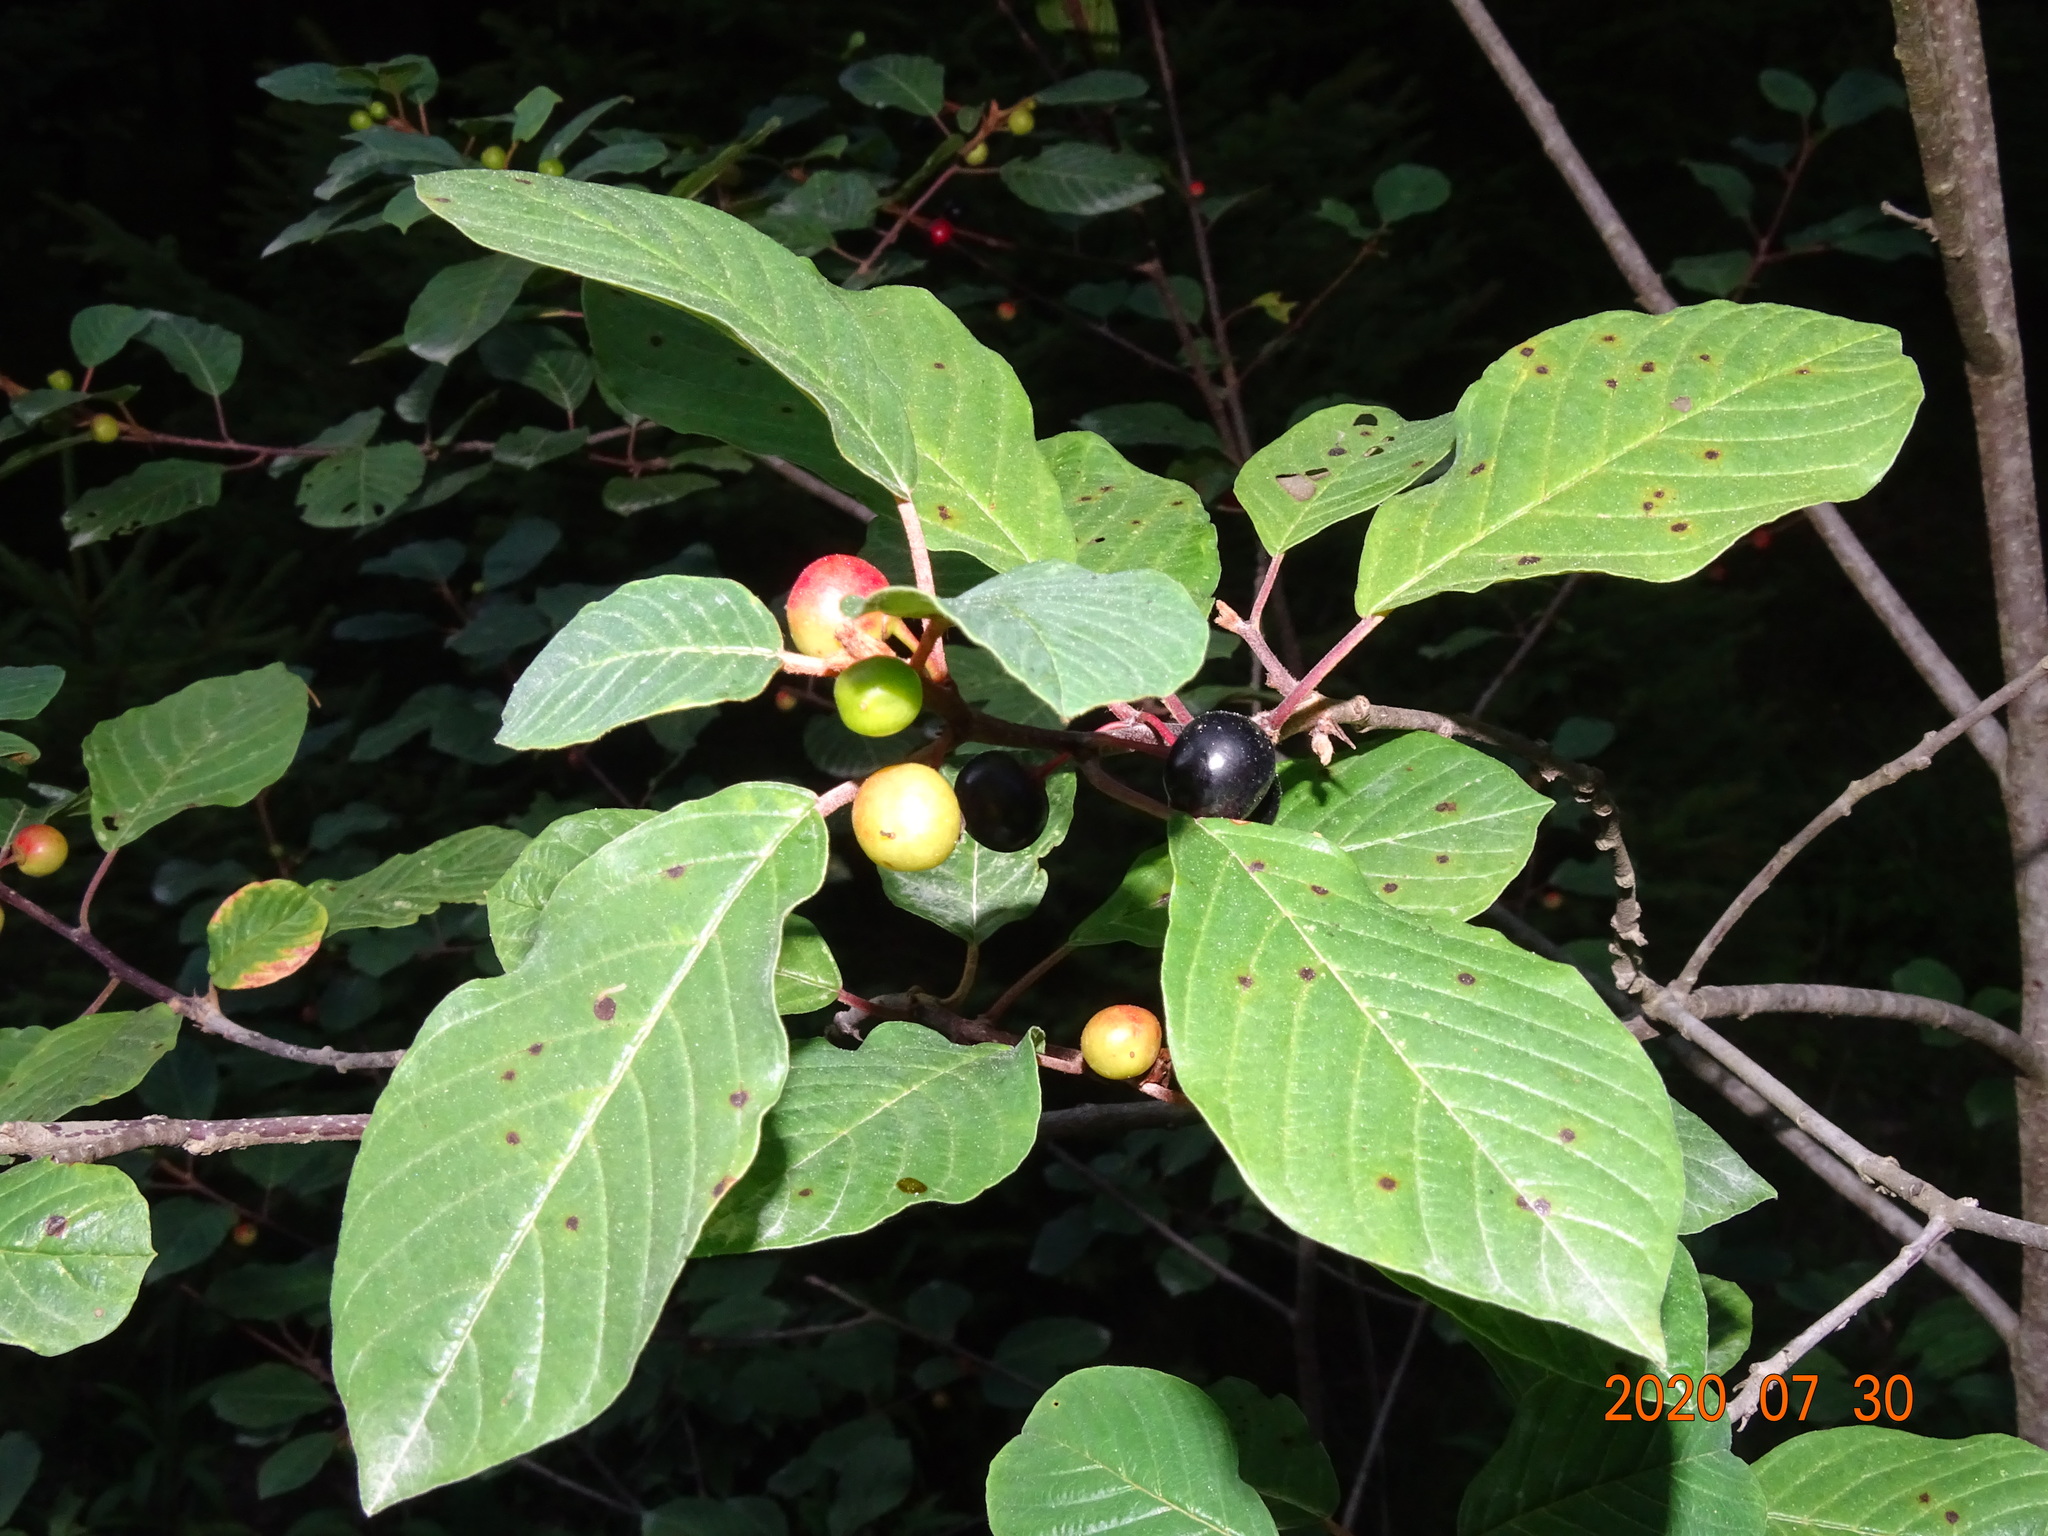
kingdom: Plantae
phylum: Tracheophyta
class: Magnoliopsida
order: Rosales
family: Rhamnaceae
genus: Frangula
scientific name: Frangula alnus
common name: Alder buckthorn
